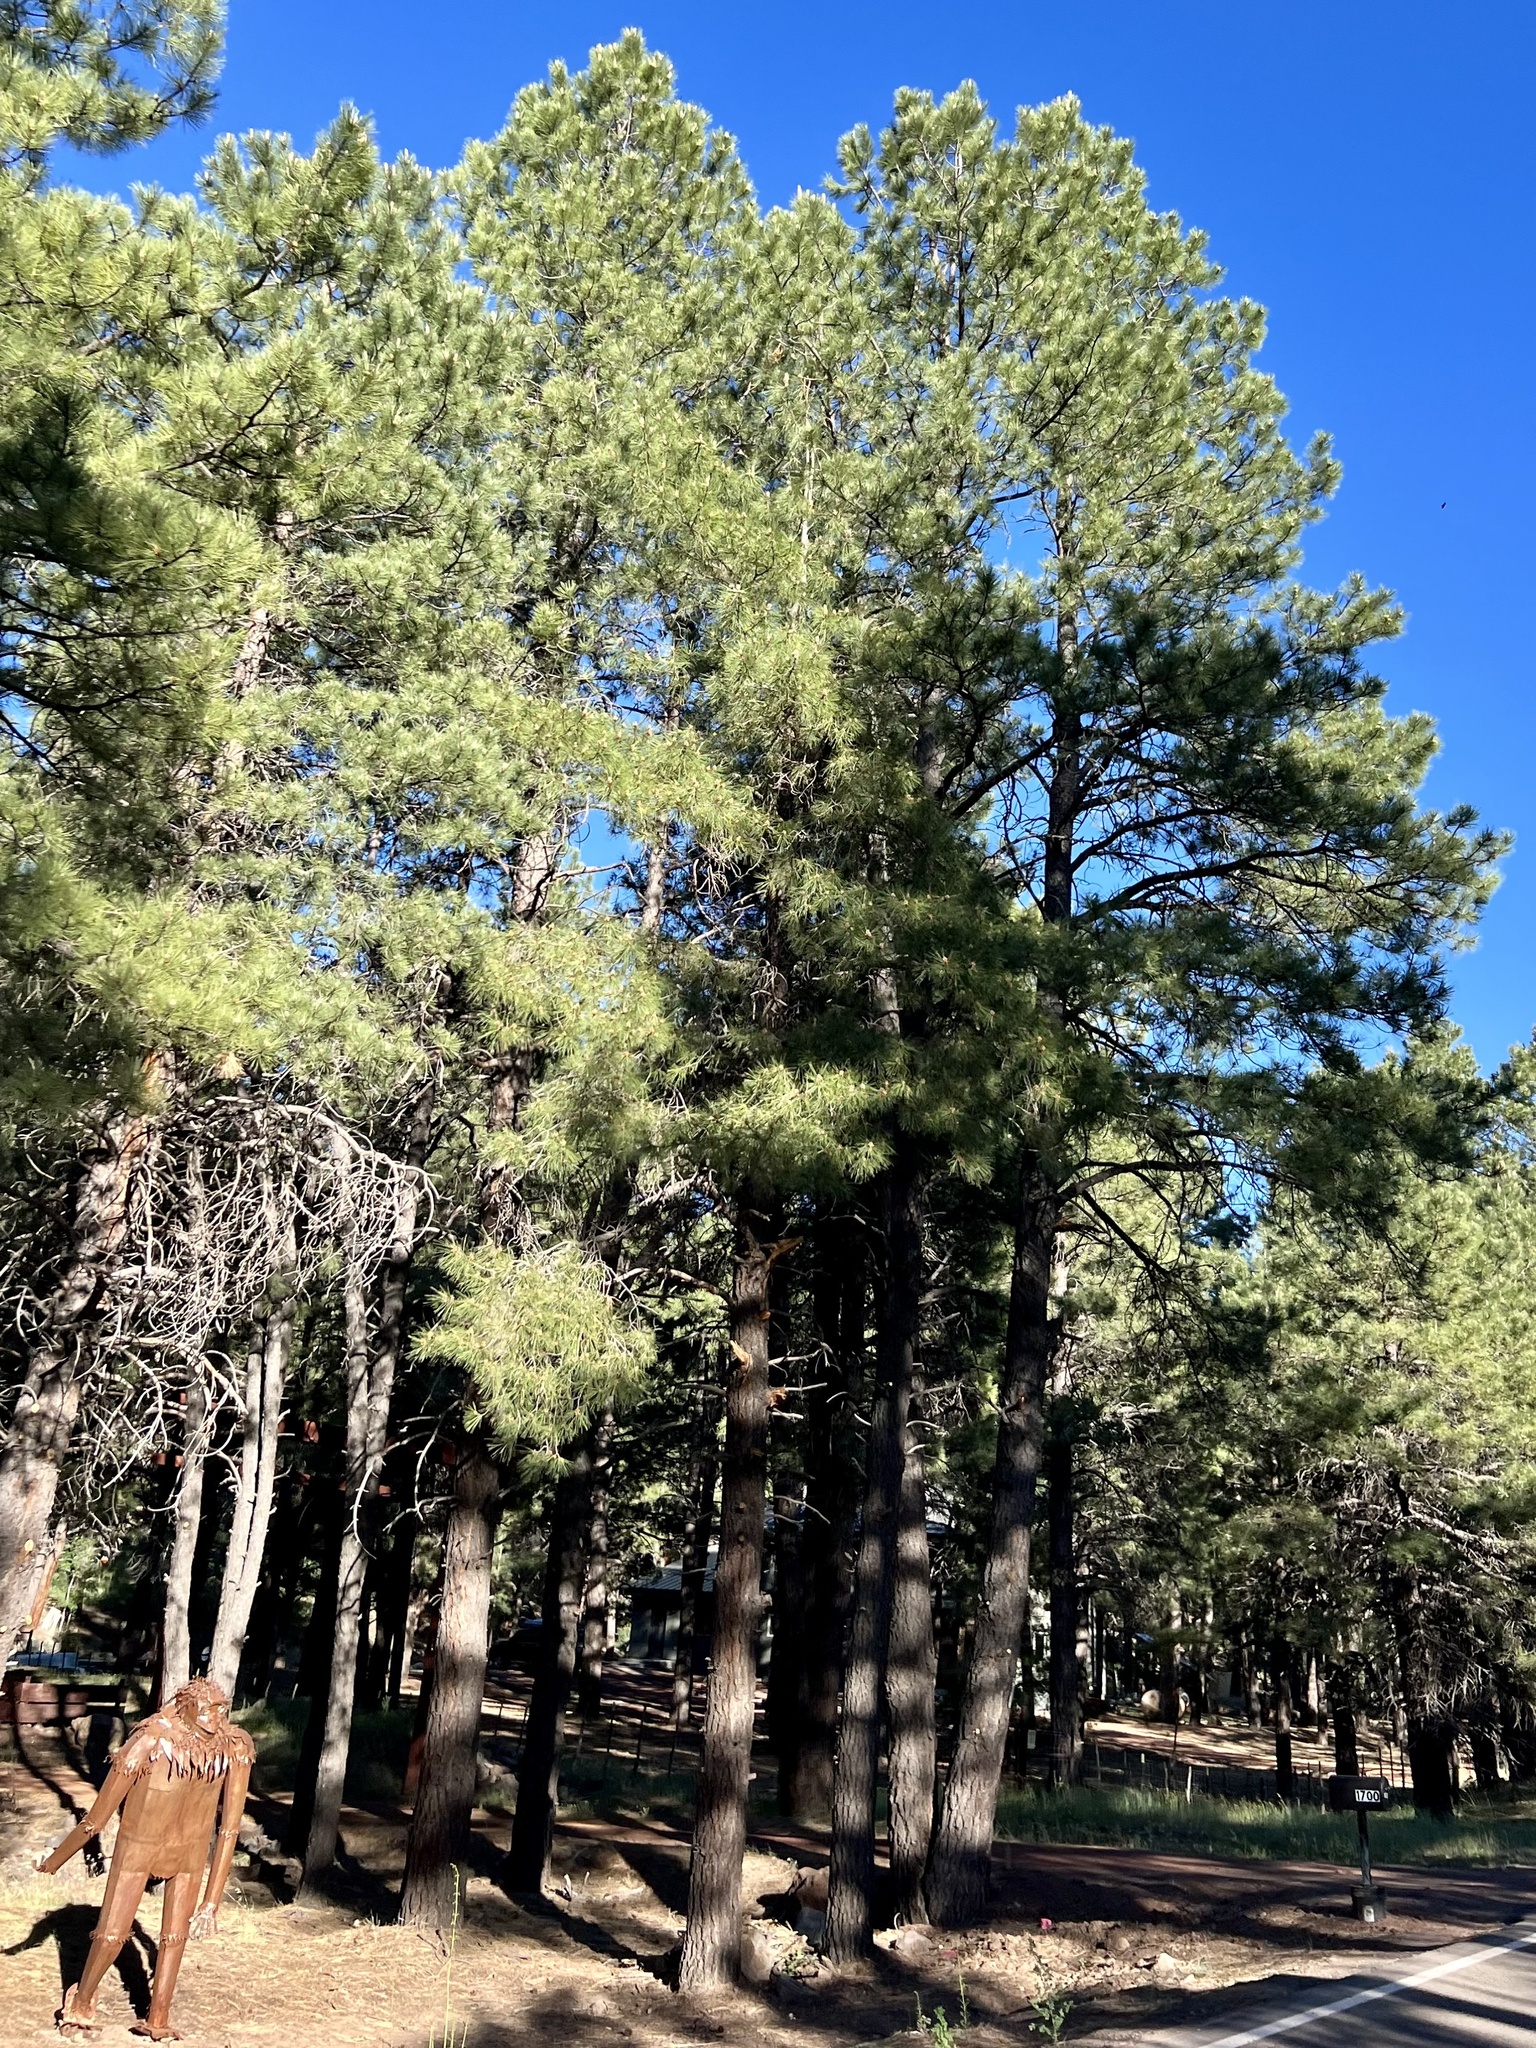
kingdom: Plantae
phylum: Tracheophyta
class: Pinopsida
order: Pinales
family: Pinaceae
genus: Pinus
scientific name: Pinus ponderosa
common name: Western yellow-pine
